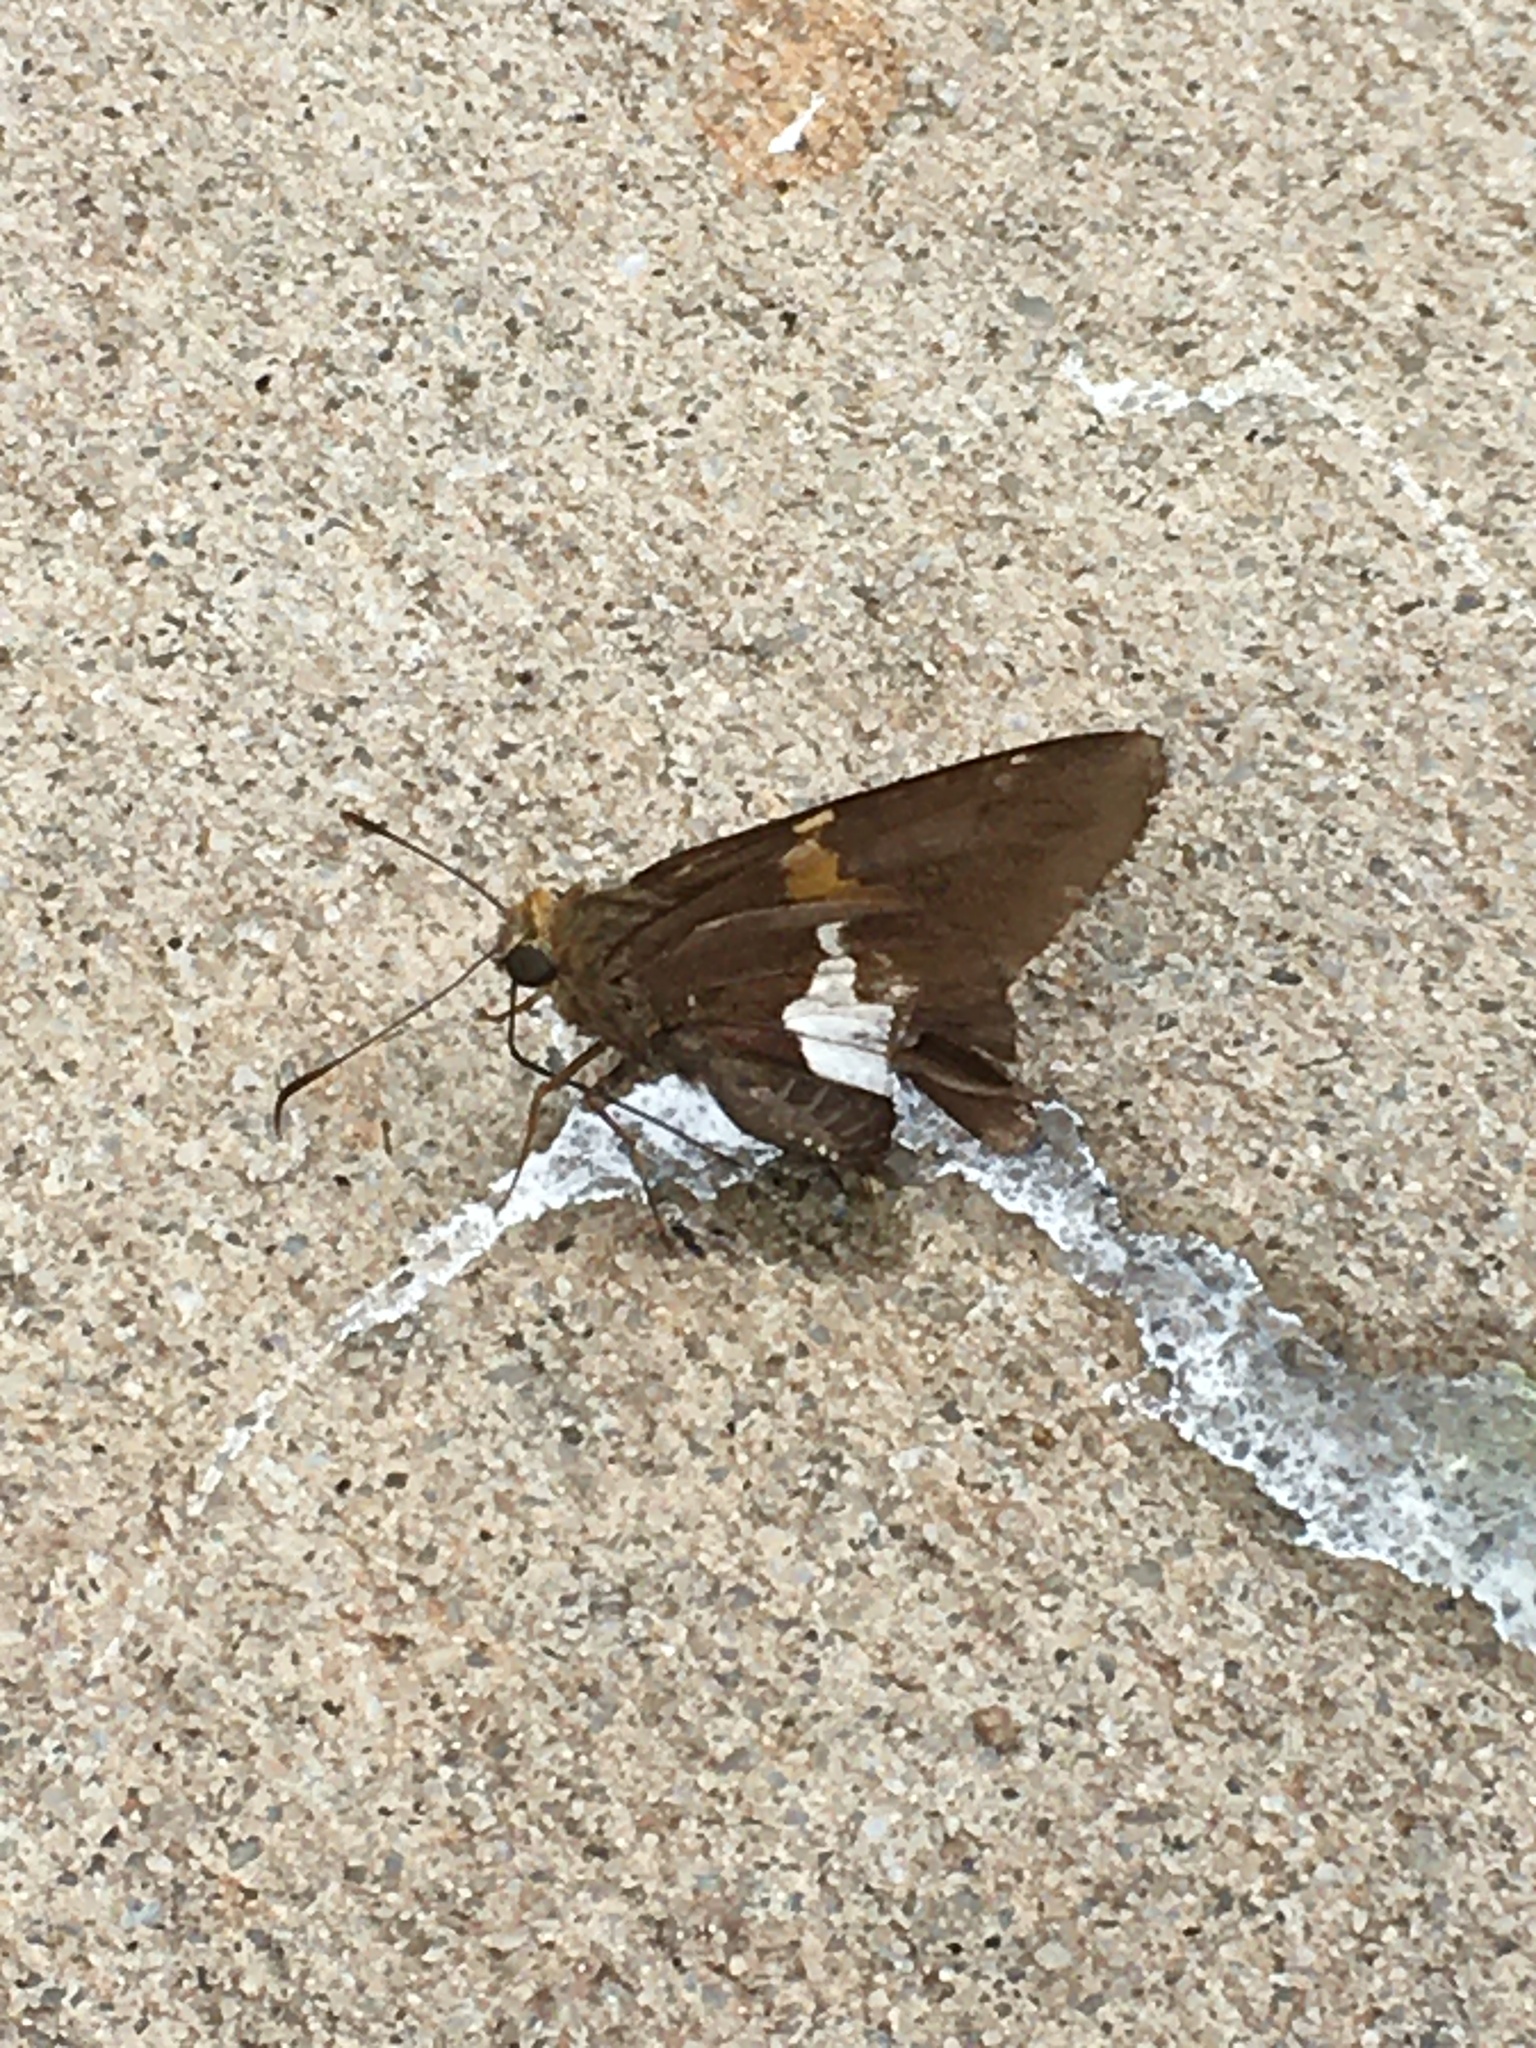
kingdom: Animalia
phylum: Arthropoda
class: Insecta
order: Lepidoptera
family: Hesperiidae
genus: Epargyreus
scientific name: Epargyreus clarus
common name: Silver-spotted skipper
